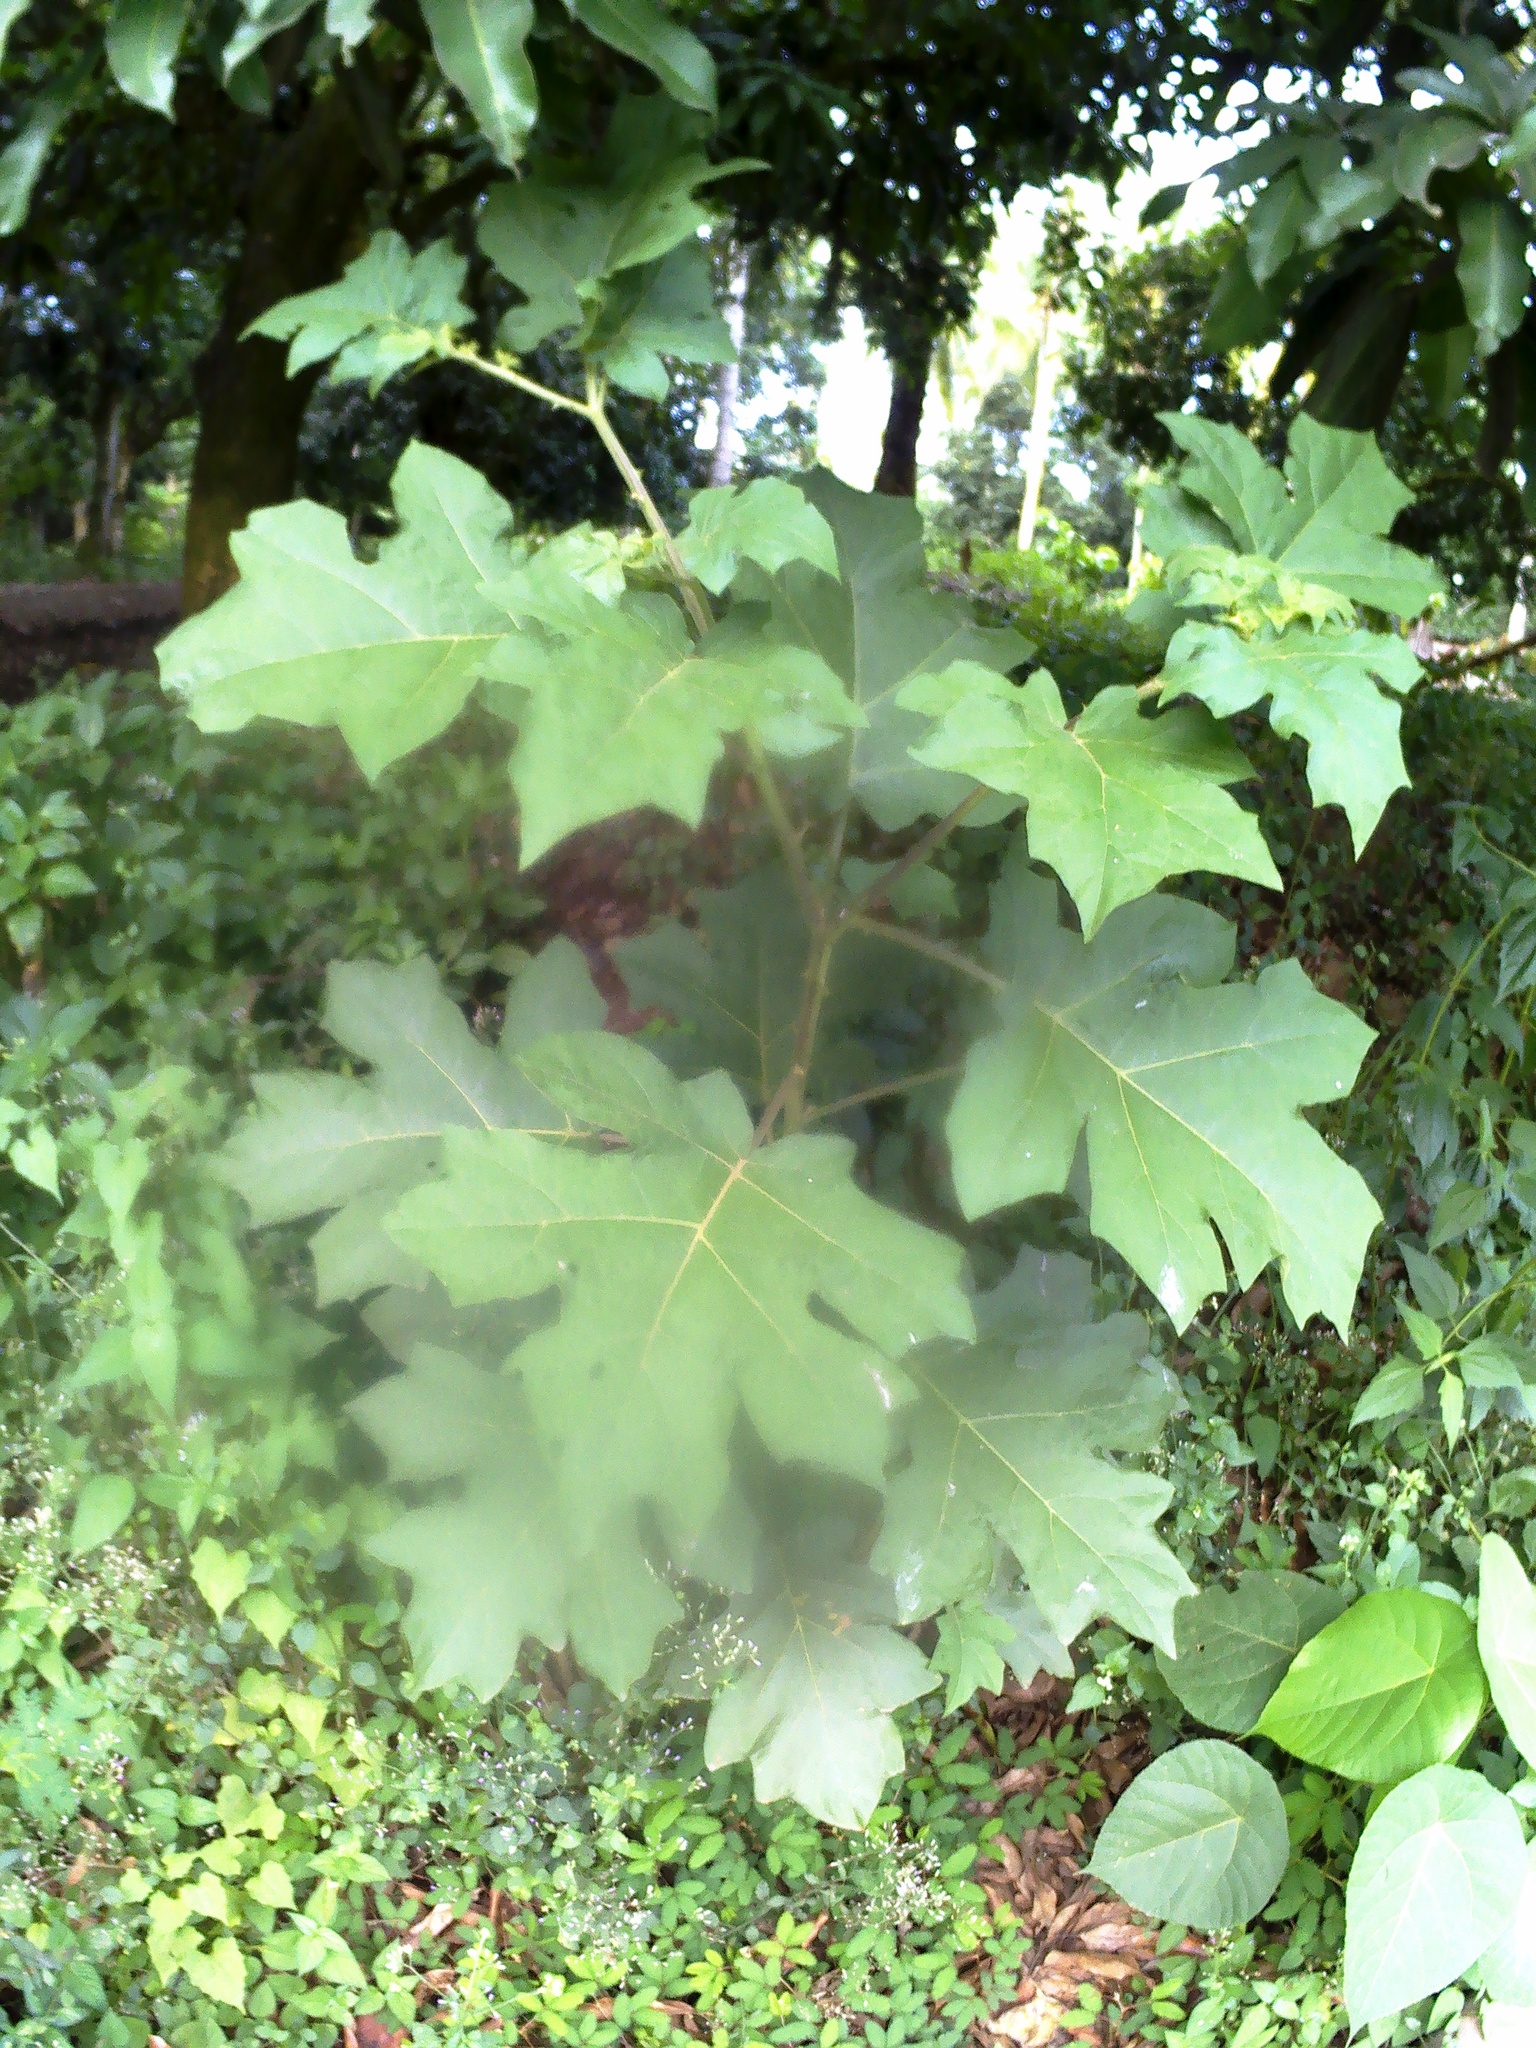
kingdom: Plantae
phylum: Tracheophyta
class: Magnoliopsida
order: Solanales
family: Solanaceae
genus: Solanum
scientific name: Solanum torvum
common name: Turkey berry
